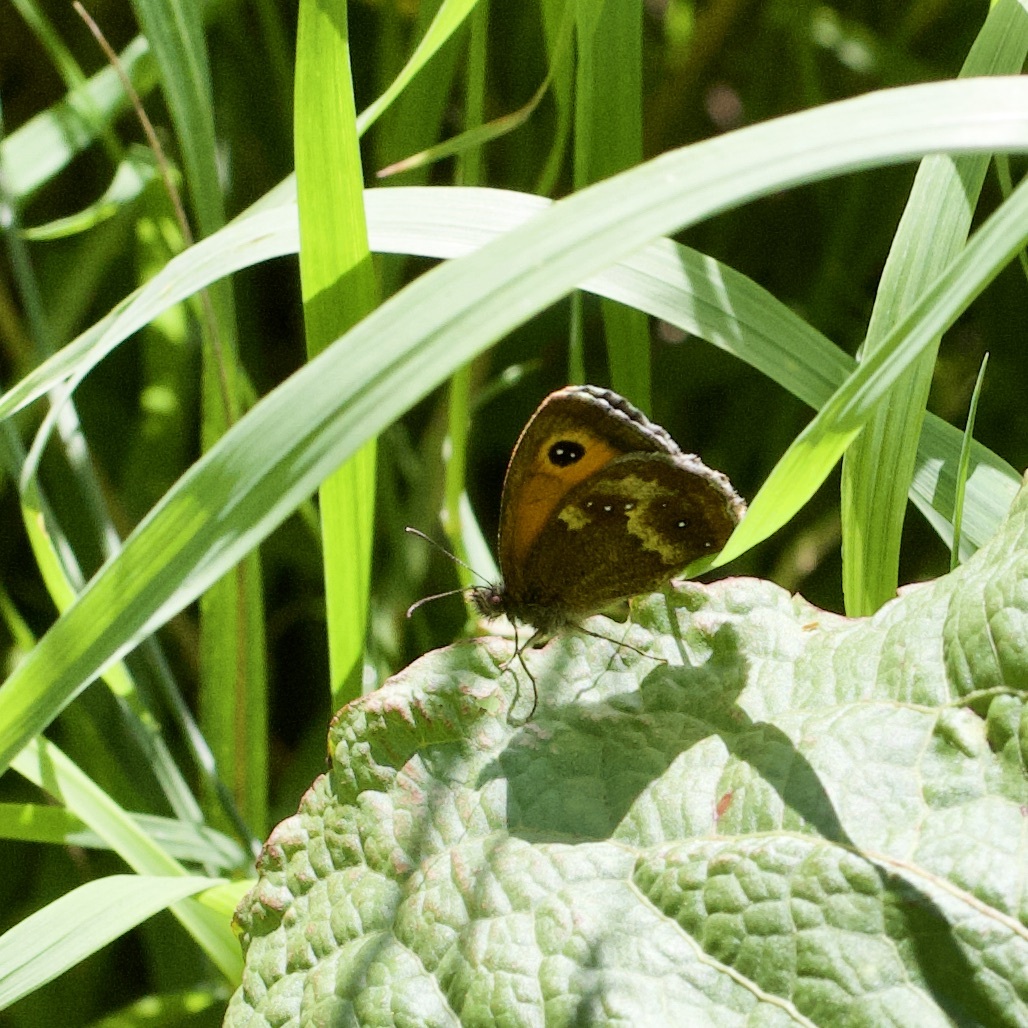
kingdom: Animalia
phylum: Arthropoda
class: Insecta
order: Lepidoptera
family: Nymphalidae
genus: Pyronia
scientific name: Pyronia tithonus
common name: Gatekeeper
